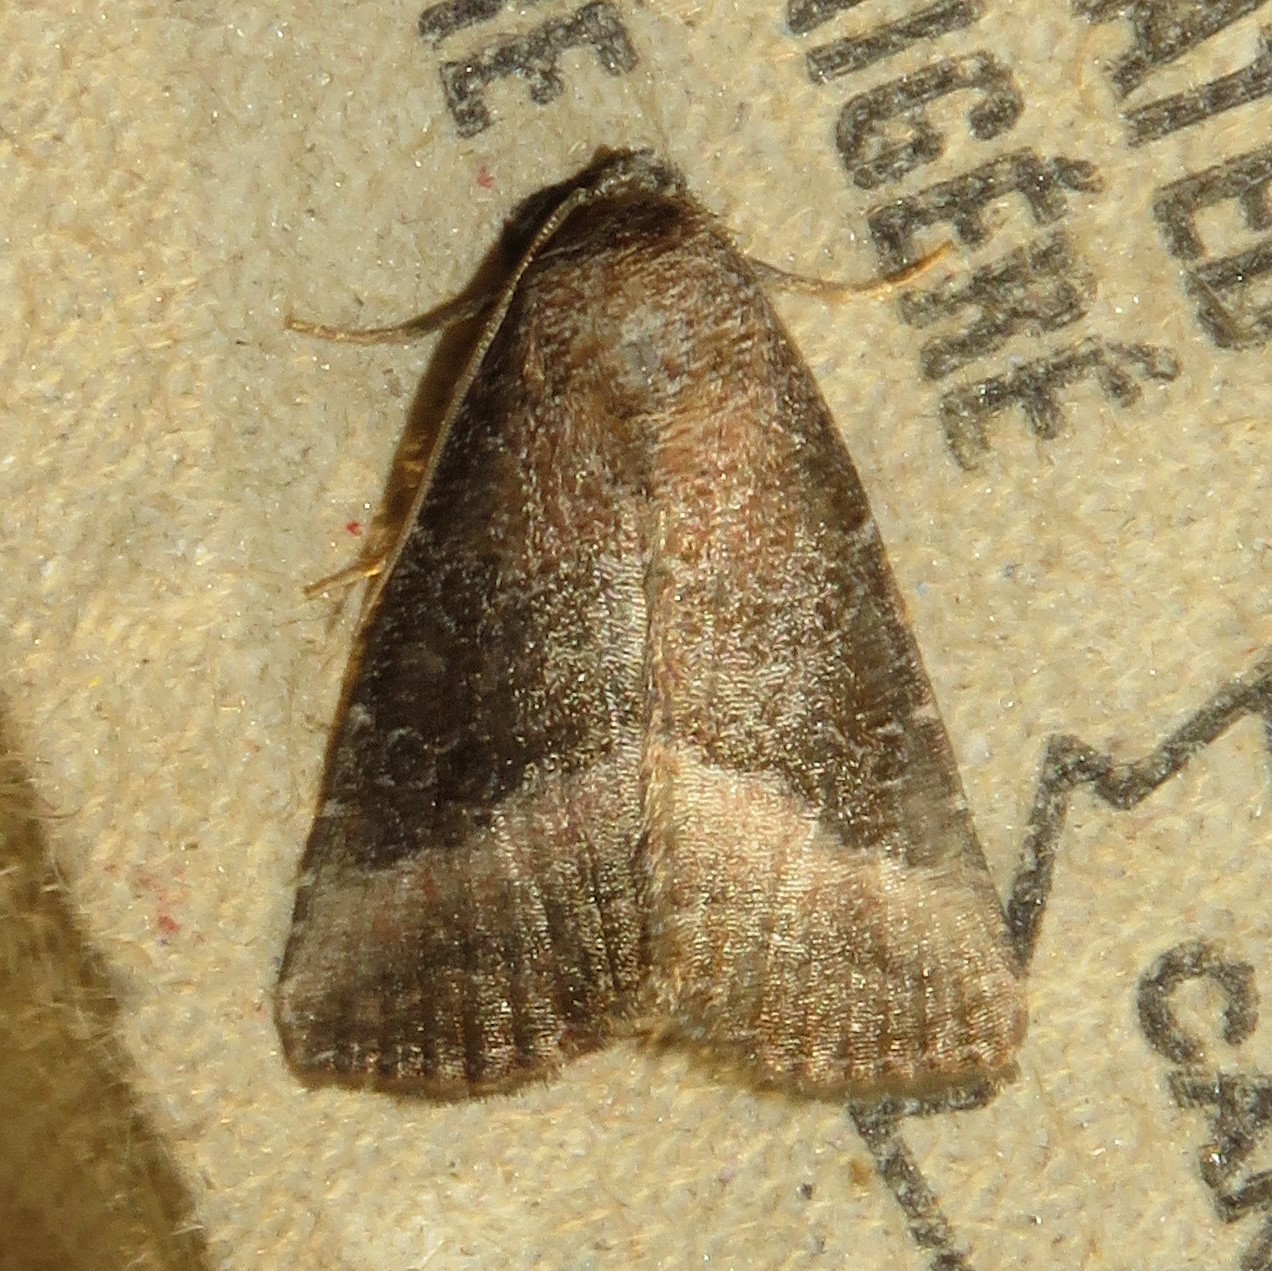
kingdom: Animalia
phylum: Arthropoda
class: Insecta
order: Lepidoptera
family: Noctuidae
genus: Ogdoconta
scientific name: Ogdoconta cinereola
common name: Common pinkband
